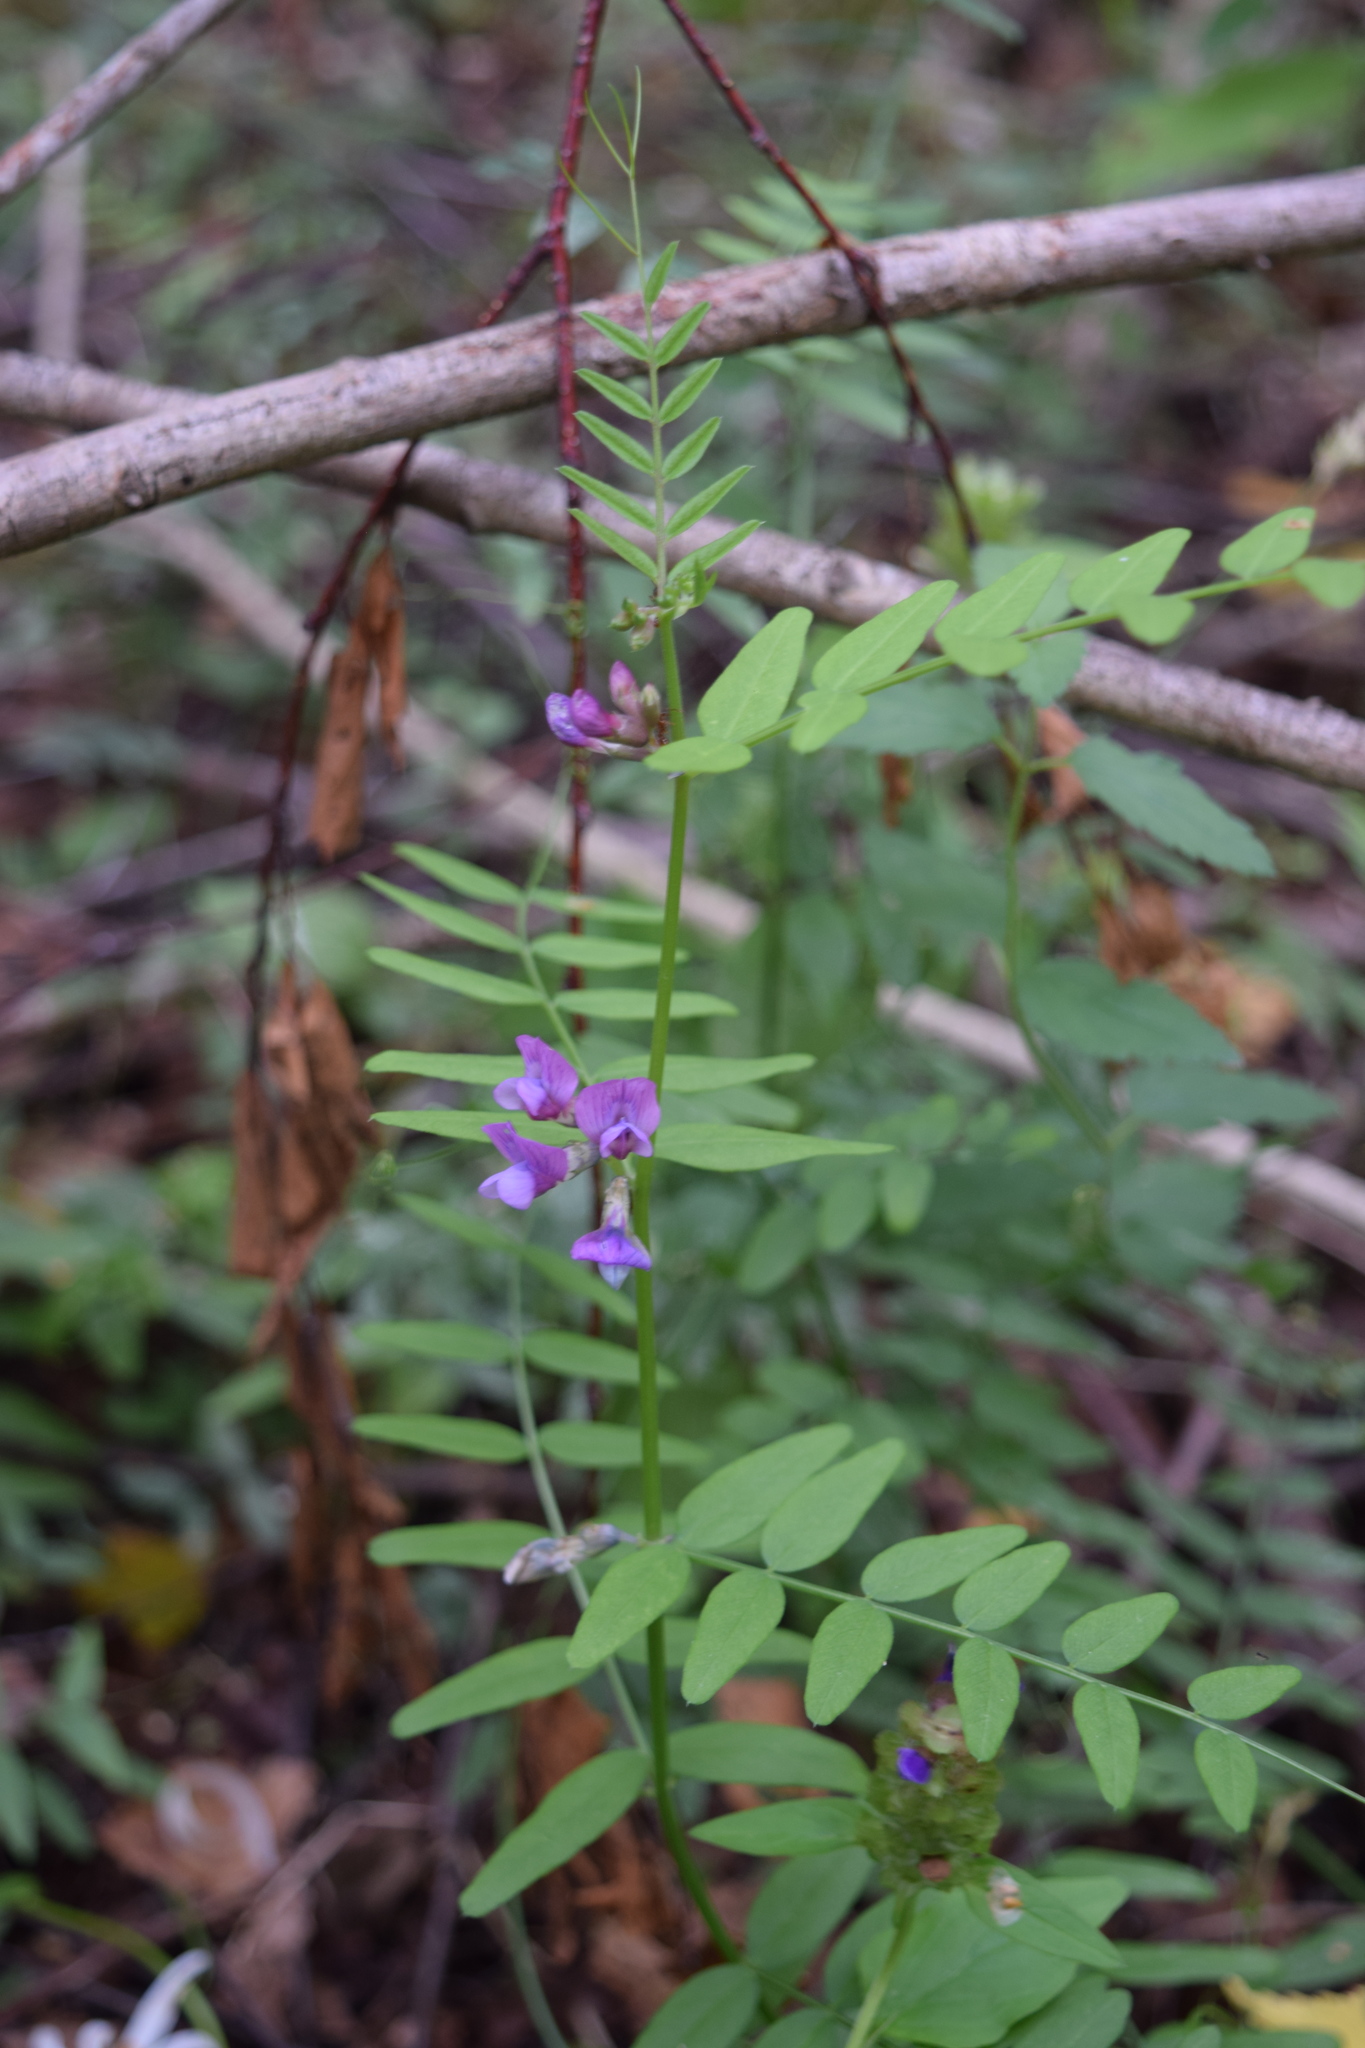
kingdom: Plantae
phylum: Tracheophyta
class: Magnoliopsida
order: Fabales
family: Fabaceae
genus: Vicia
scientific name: Vicia sepium
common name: Bush vetch
